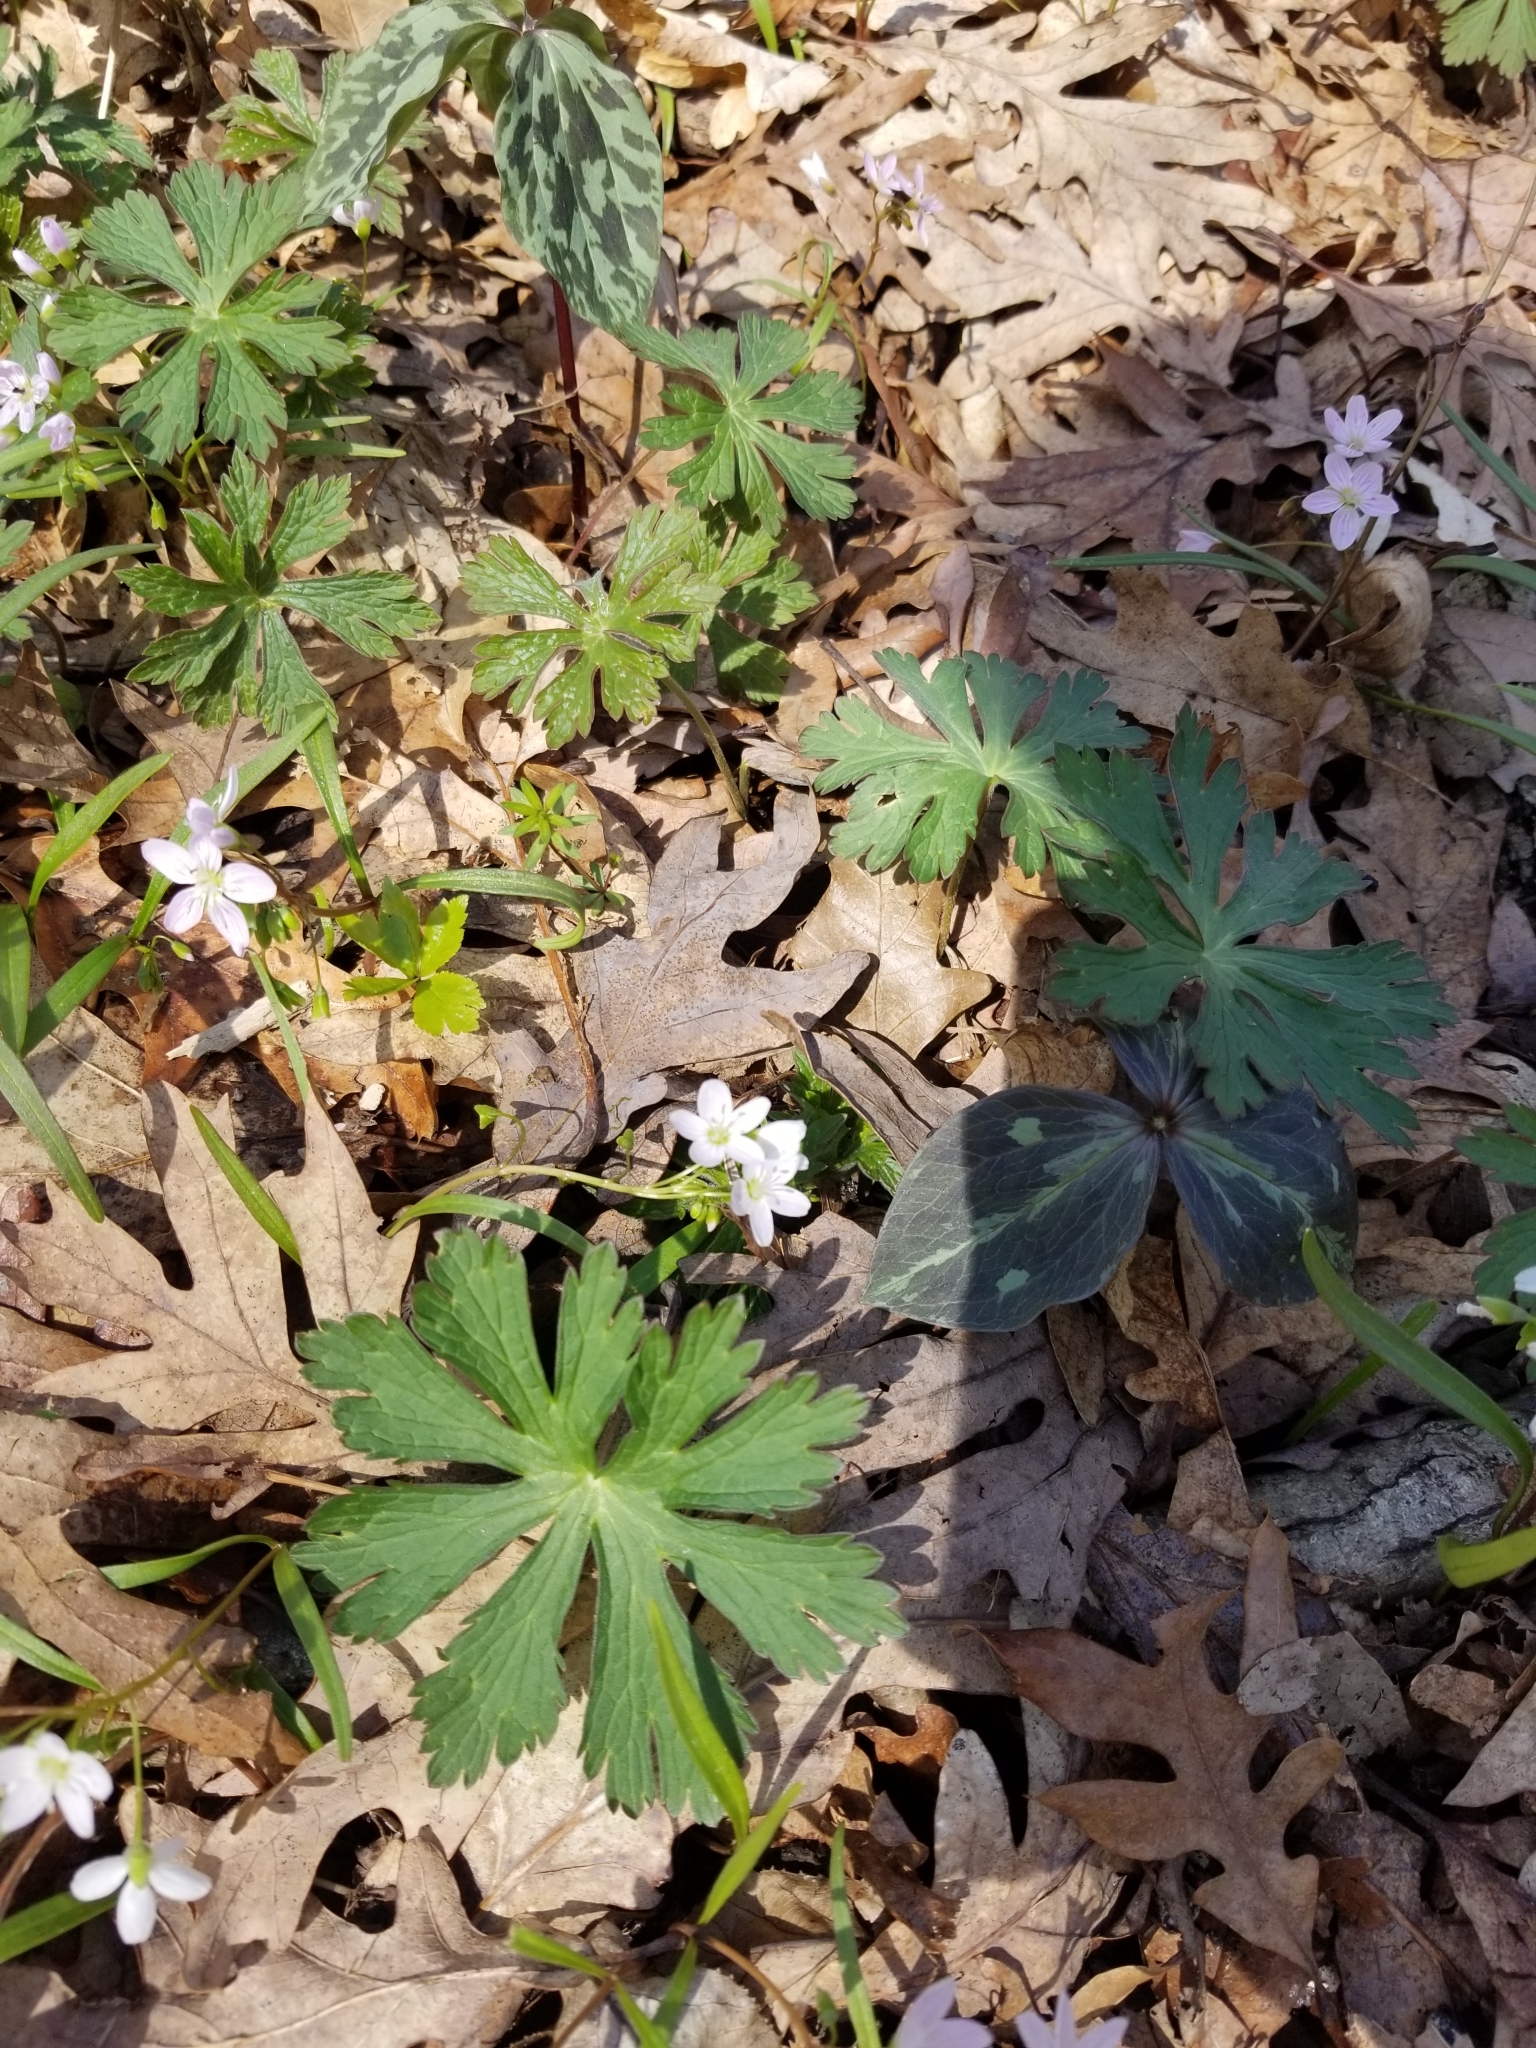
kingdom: Plantae
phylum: Tracheophyta
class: Magnoliopsida
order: Geraniales
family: Geraniaceae
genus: Geranium
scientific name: Geranium maculatum
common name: Spotted geranium
